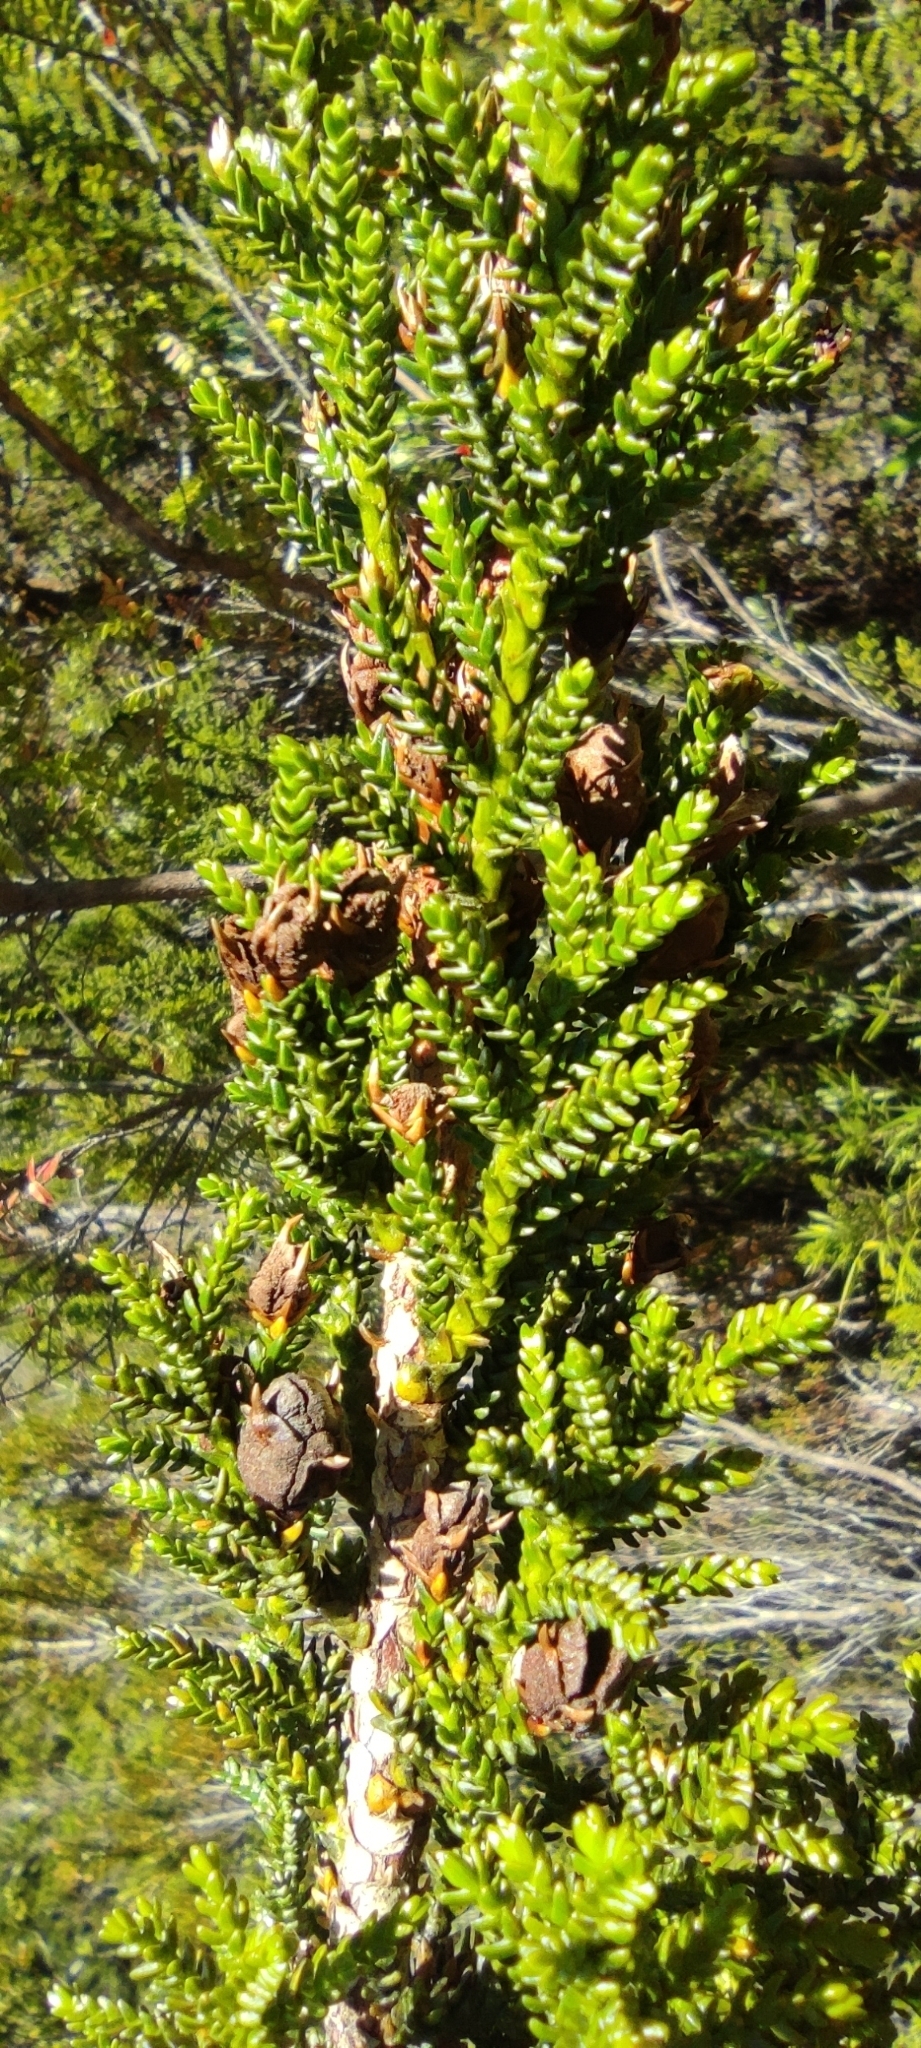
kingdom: Plantae
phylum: Tracheophyta
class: Pinopsida
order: Pinales
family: Cupressaceae
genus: Pilgerodendron
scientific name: Pilgerodendron uviferum
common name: Guaitecas cypress
